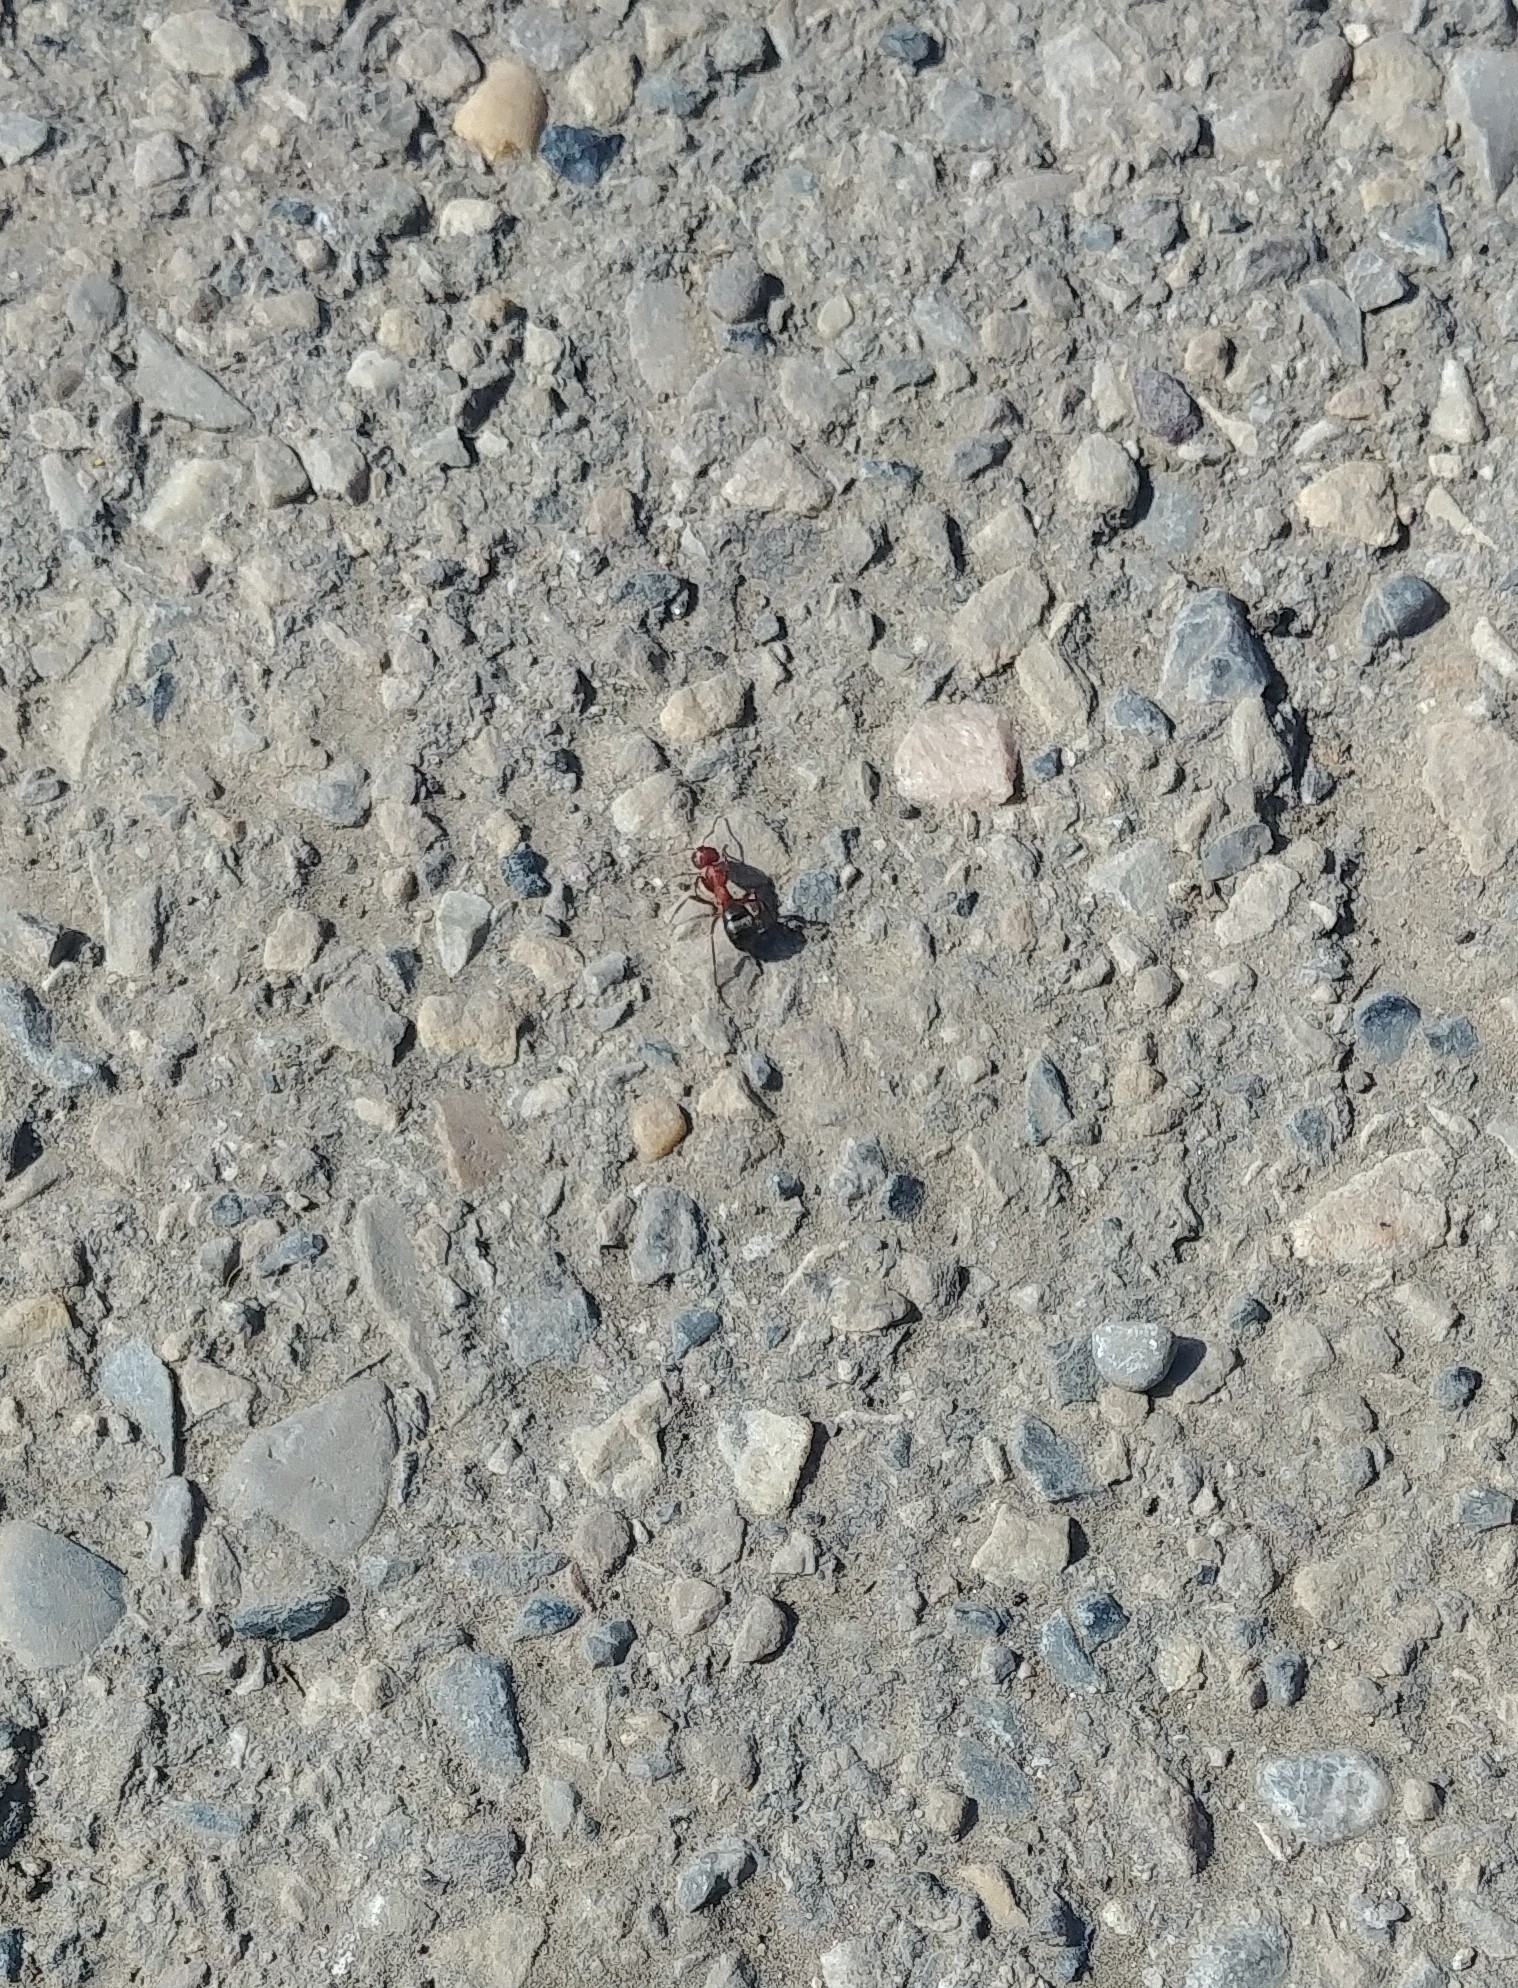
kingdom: Animalia
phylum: Arthropoda
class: Insecta
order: Hymenoptera
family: Formicidae
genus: Formica
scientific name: Formica
